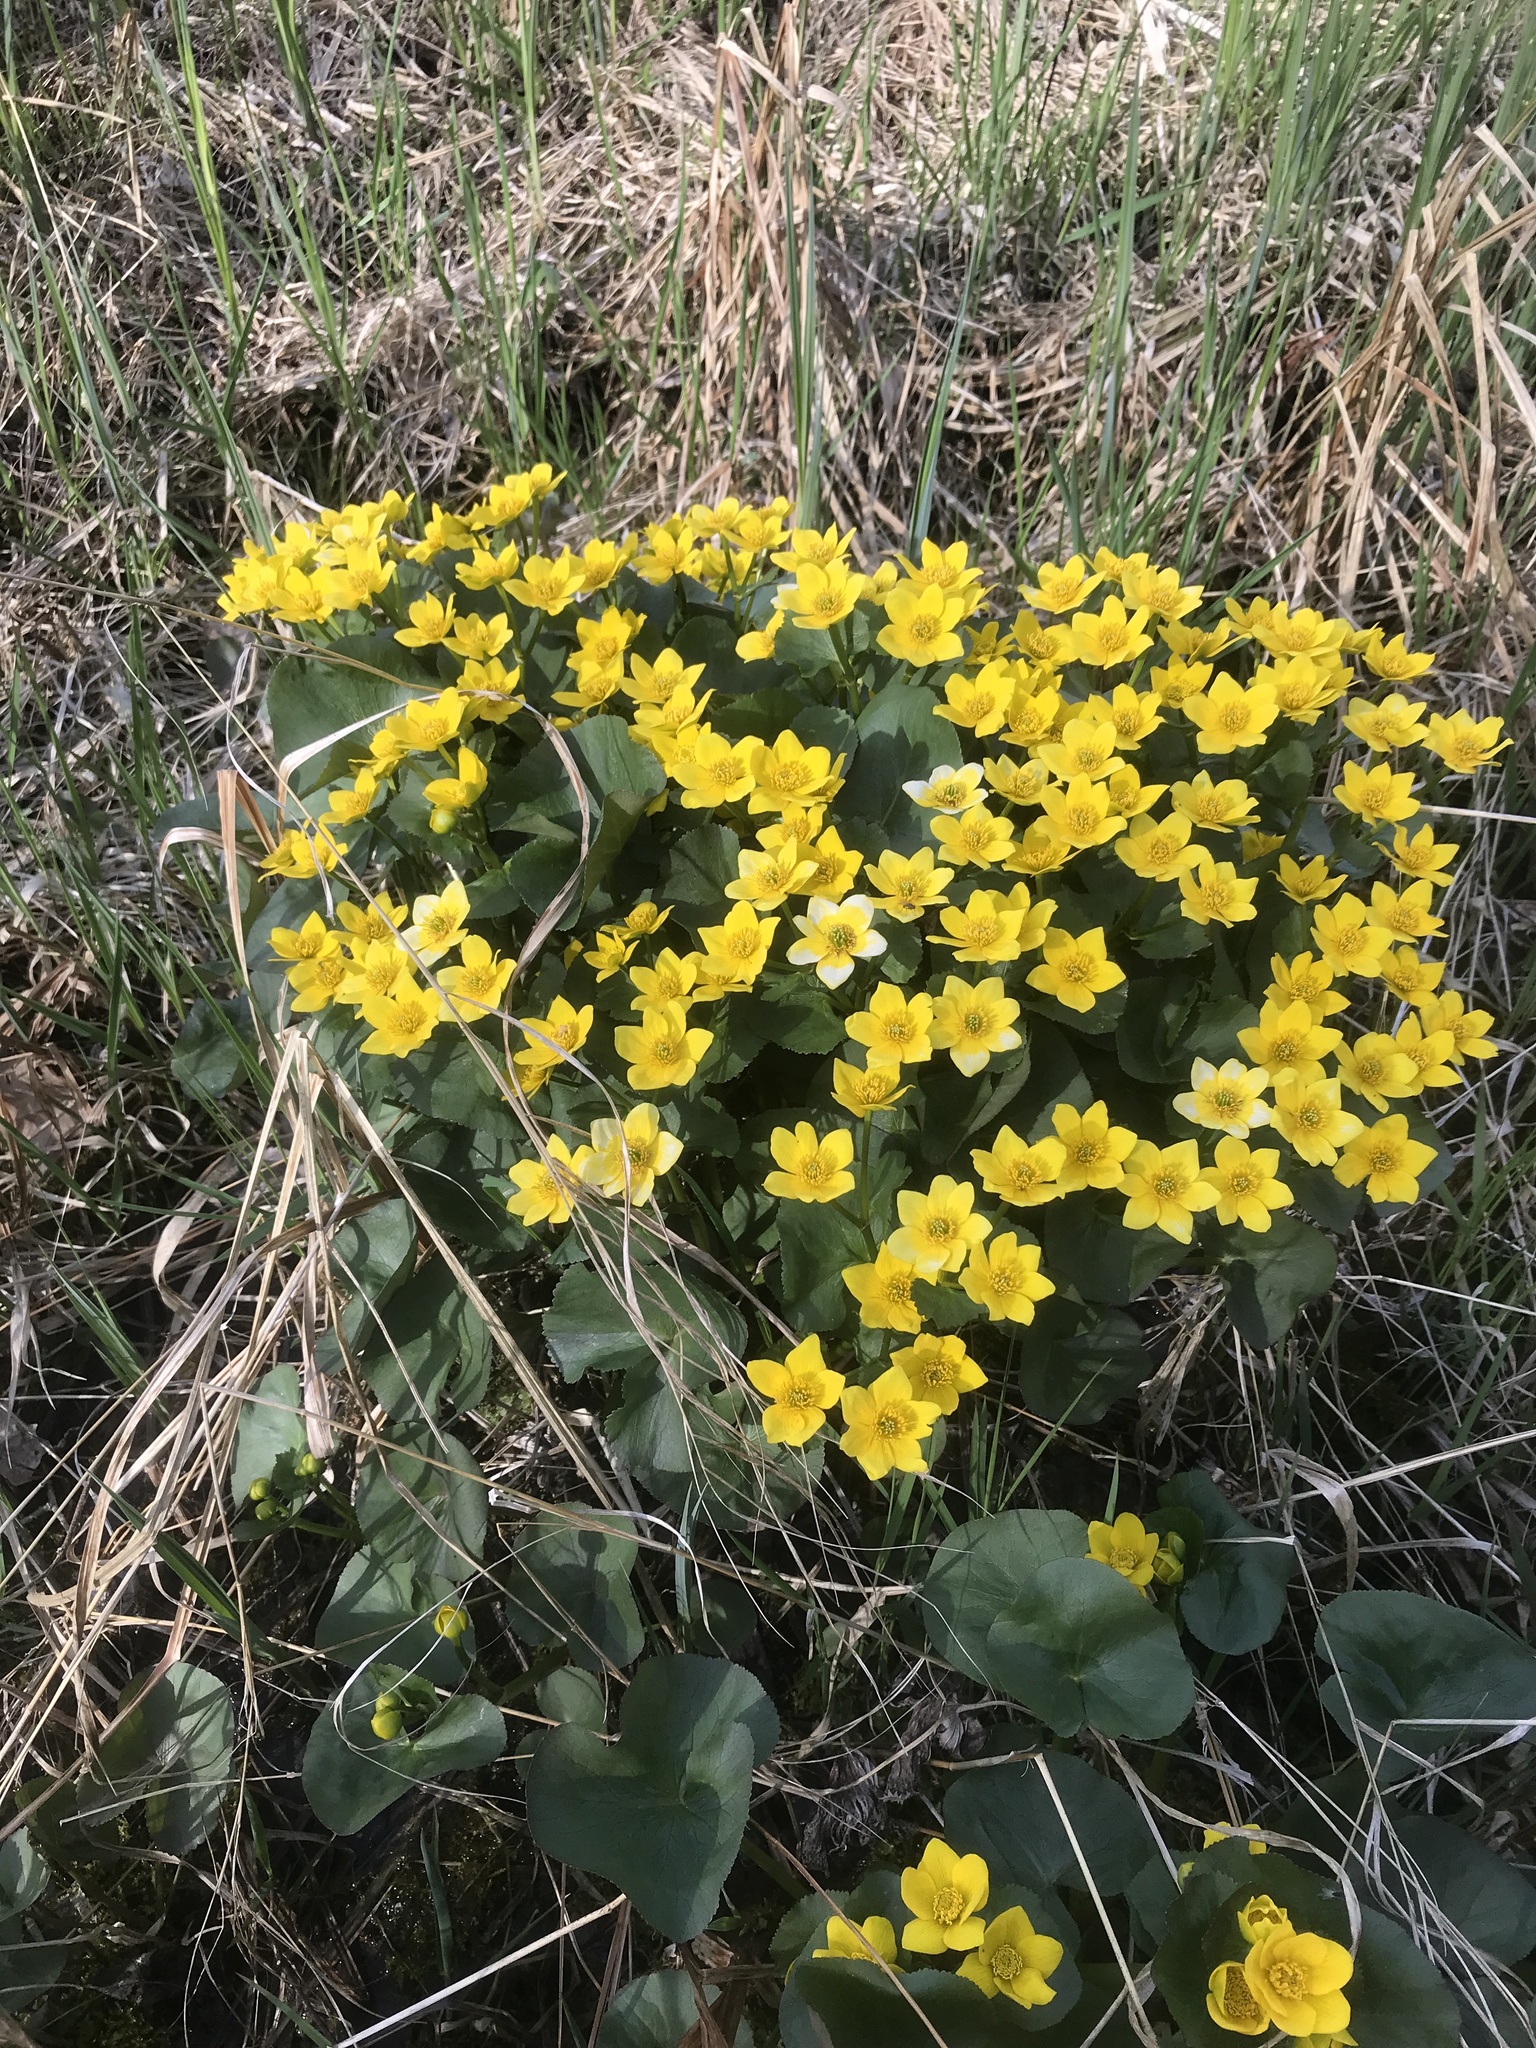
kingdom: Plantae
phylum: Tracheophyta
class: Magnoliopsida
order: Ranunculales
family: Ranunculaceae
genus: Caltha
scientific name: Caltha palustris
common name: Marsh marigold
